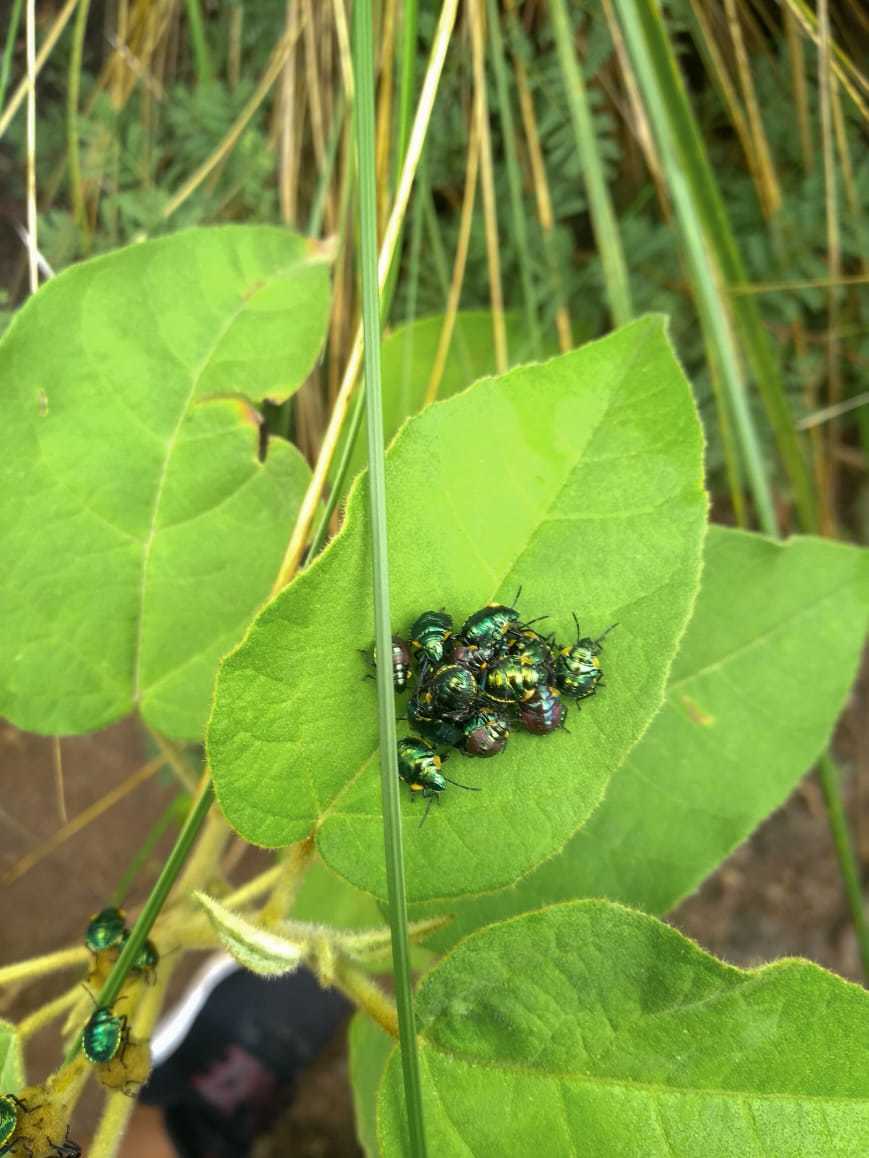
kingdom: Animalia
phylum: Arthropoda
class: Insecta
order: Hemiptera
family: Scutelleridae
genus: Pachycoris
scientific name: Pachycoris torridus
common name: Torrid jewel bug
